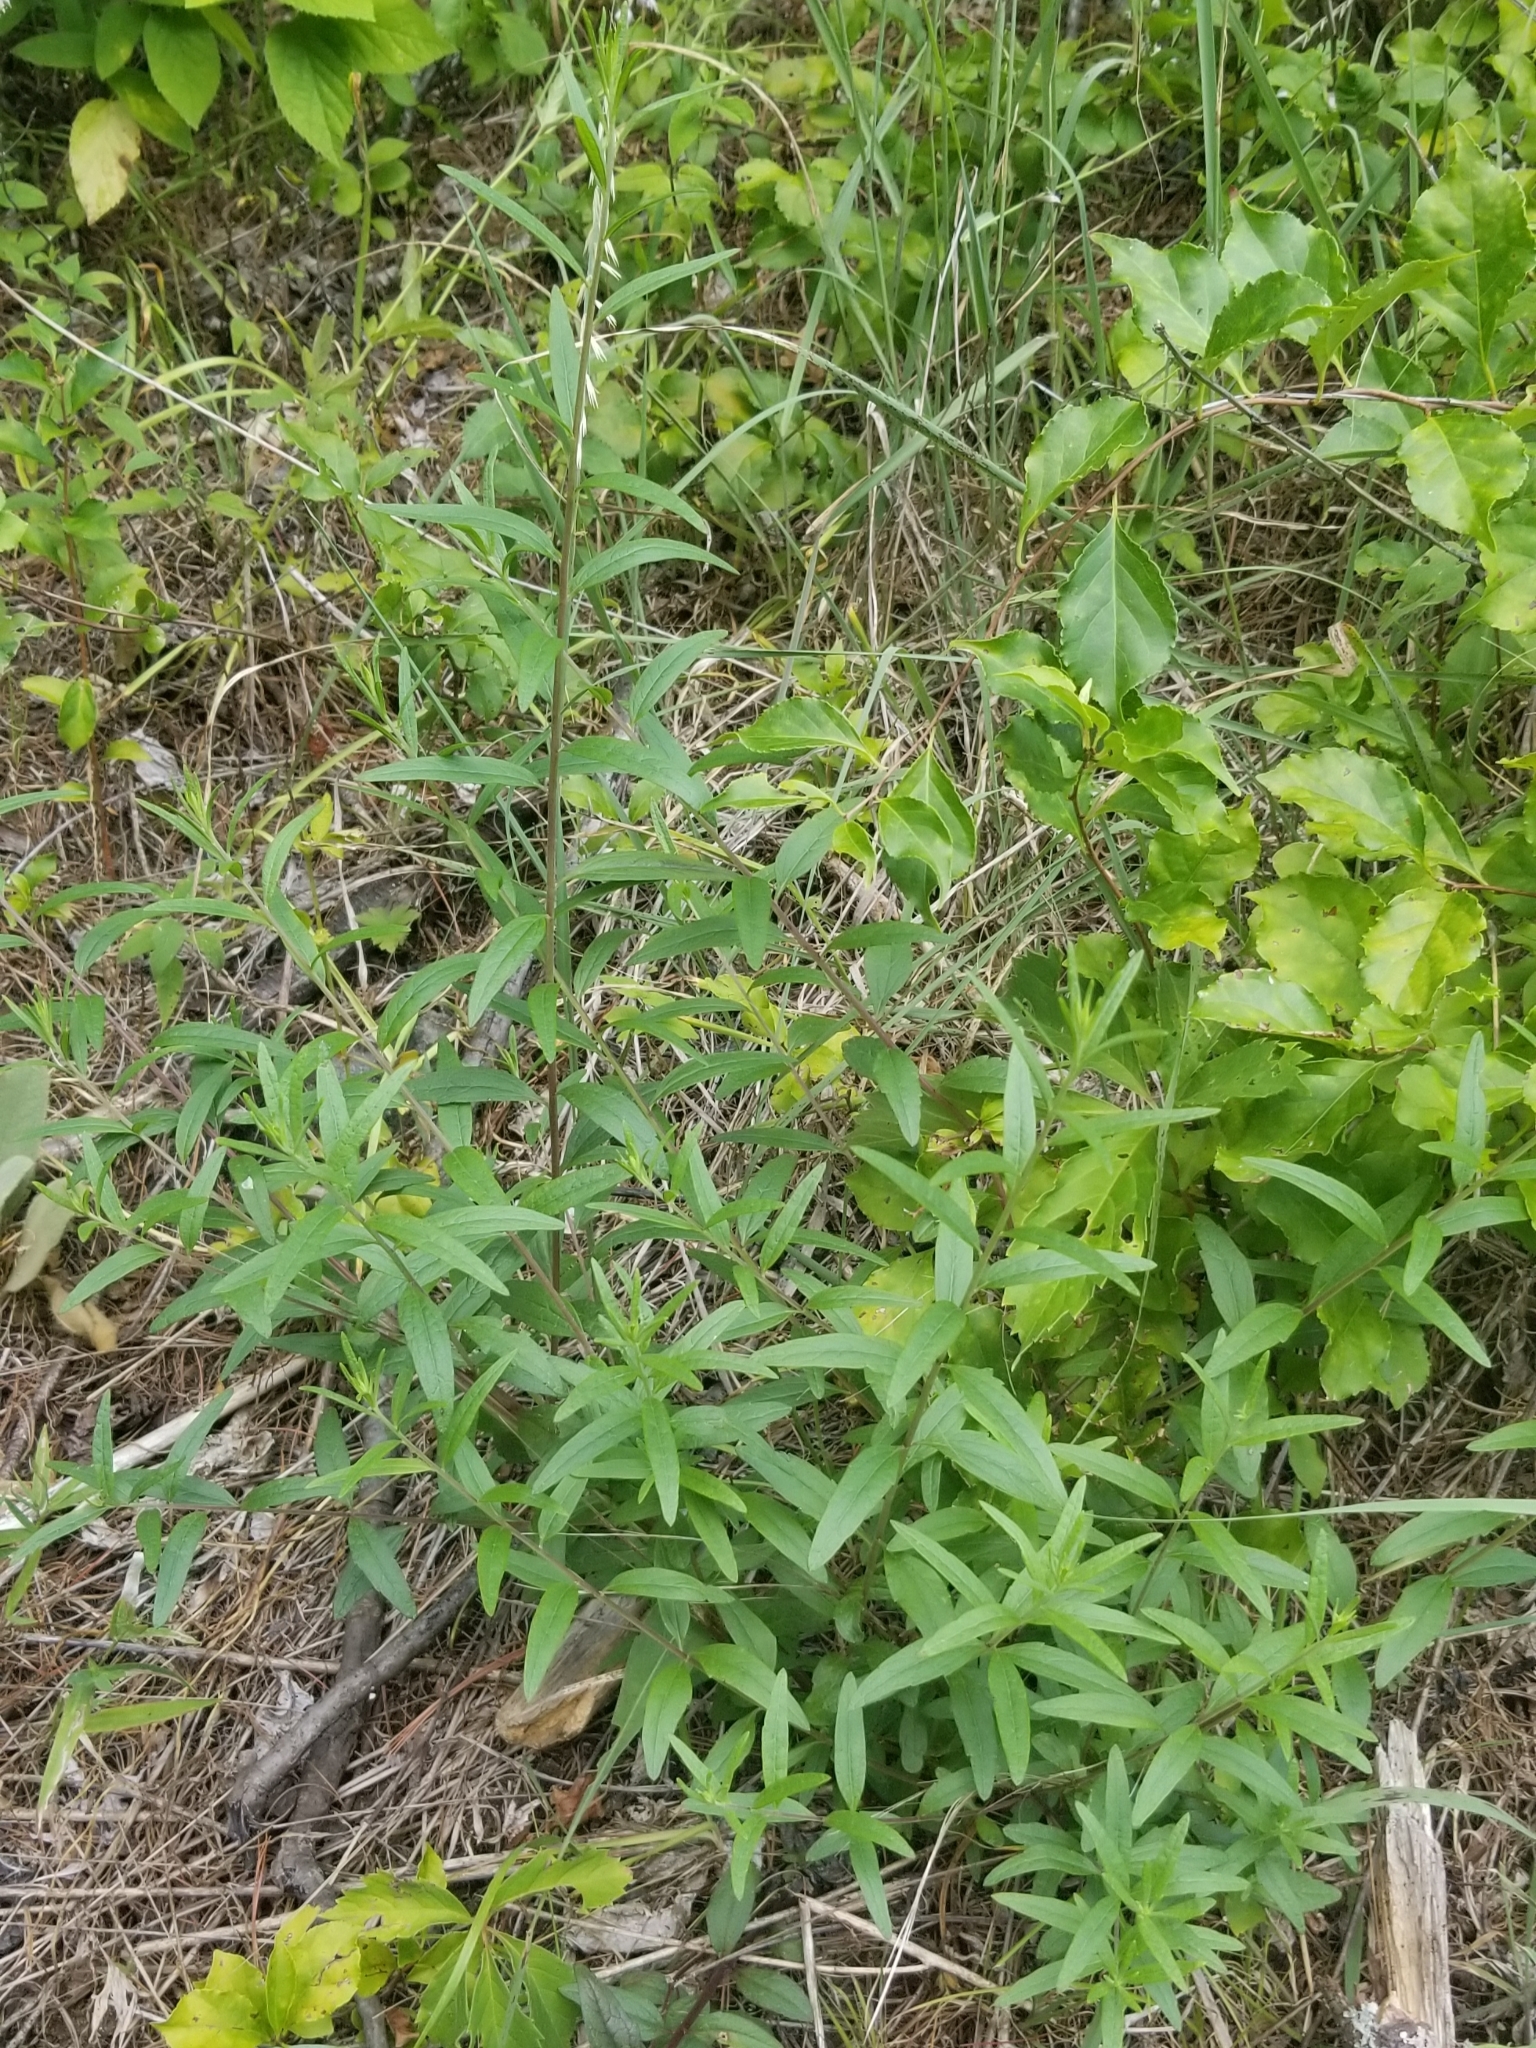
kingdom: Plantae
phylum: Tracheophyta
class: Magnoliopsida
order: Asterales
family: Asteraceae
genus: Brickellia
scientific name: Brickellia eupatorioides
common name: False boneset
